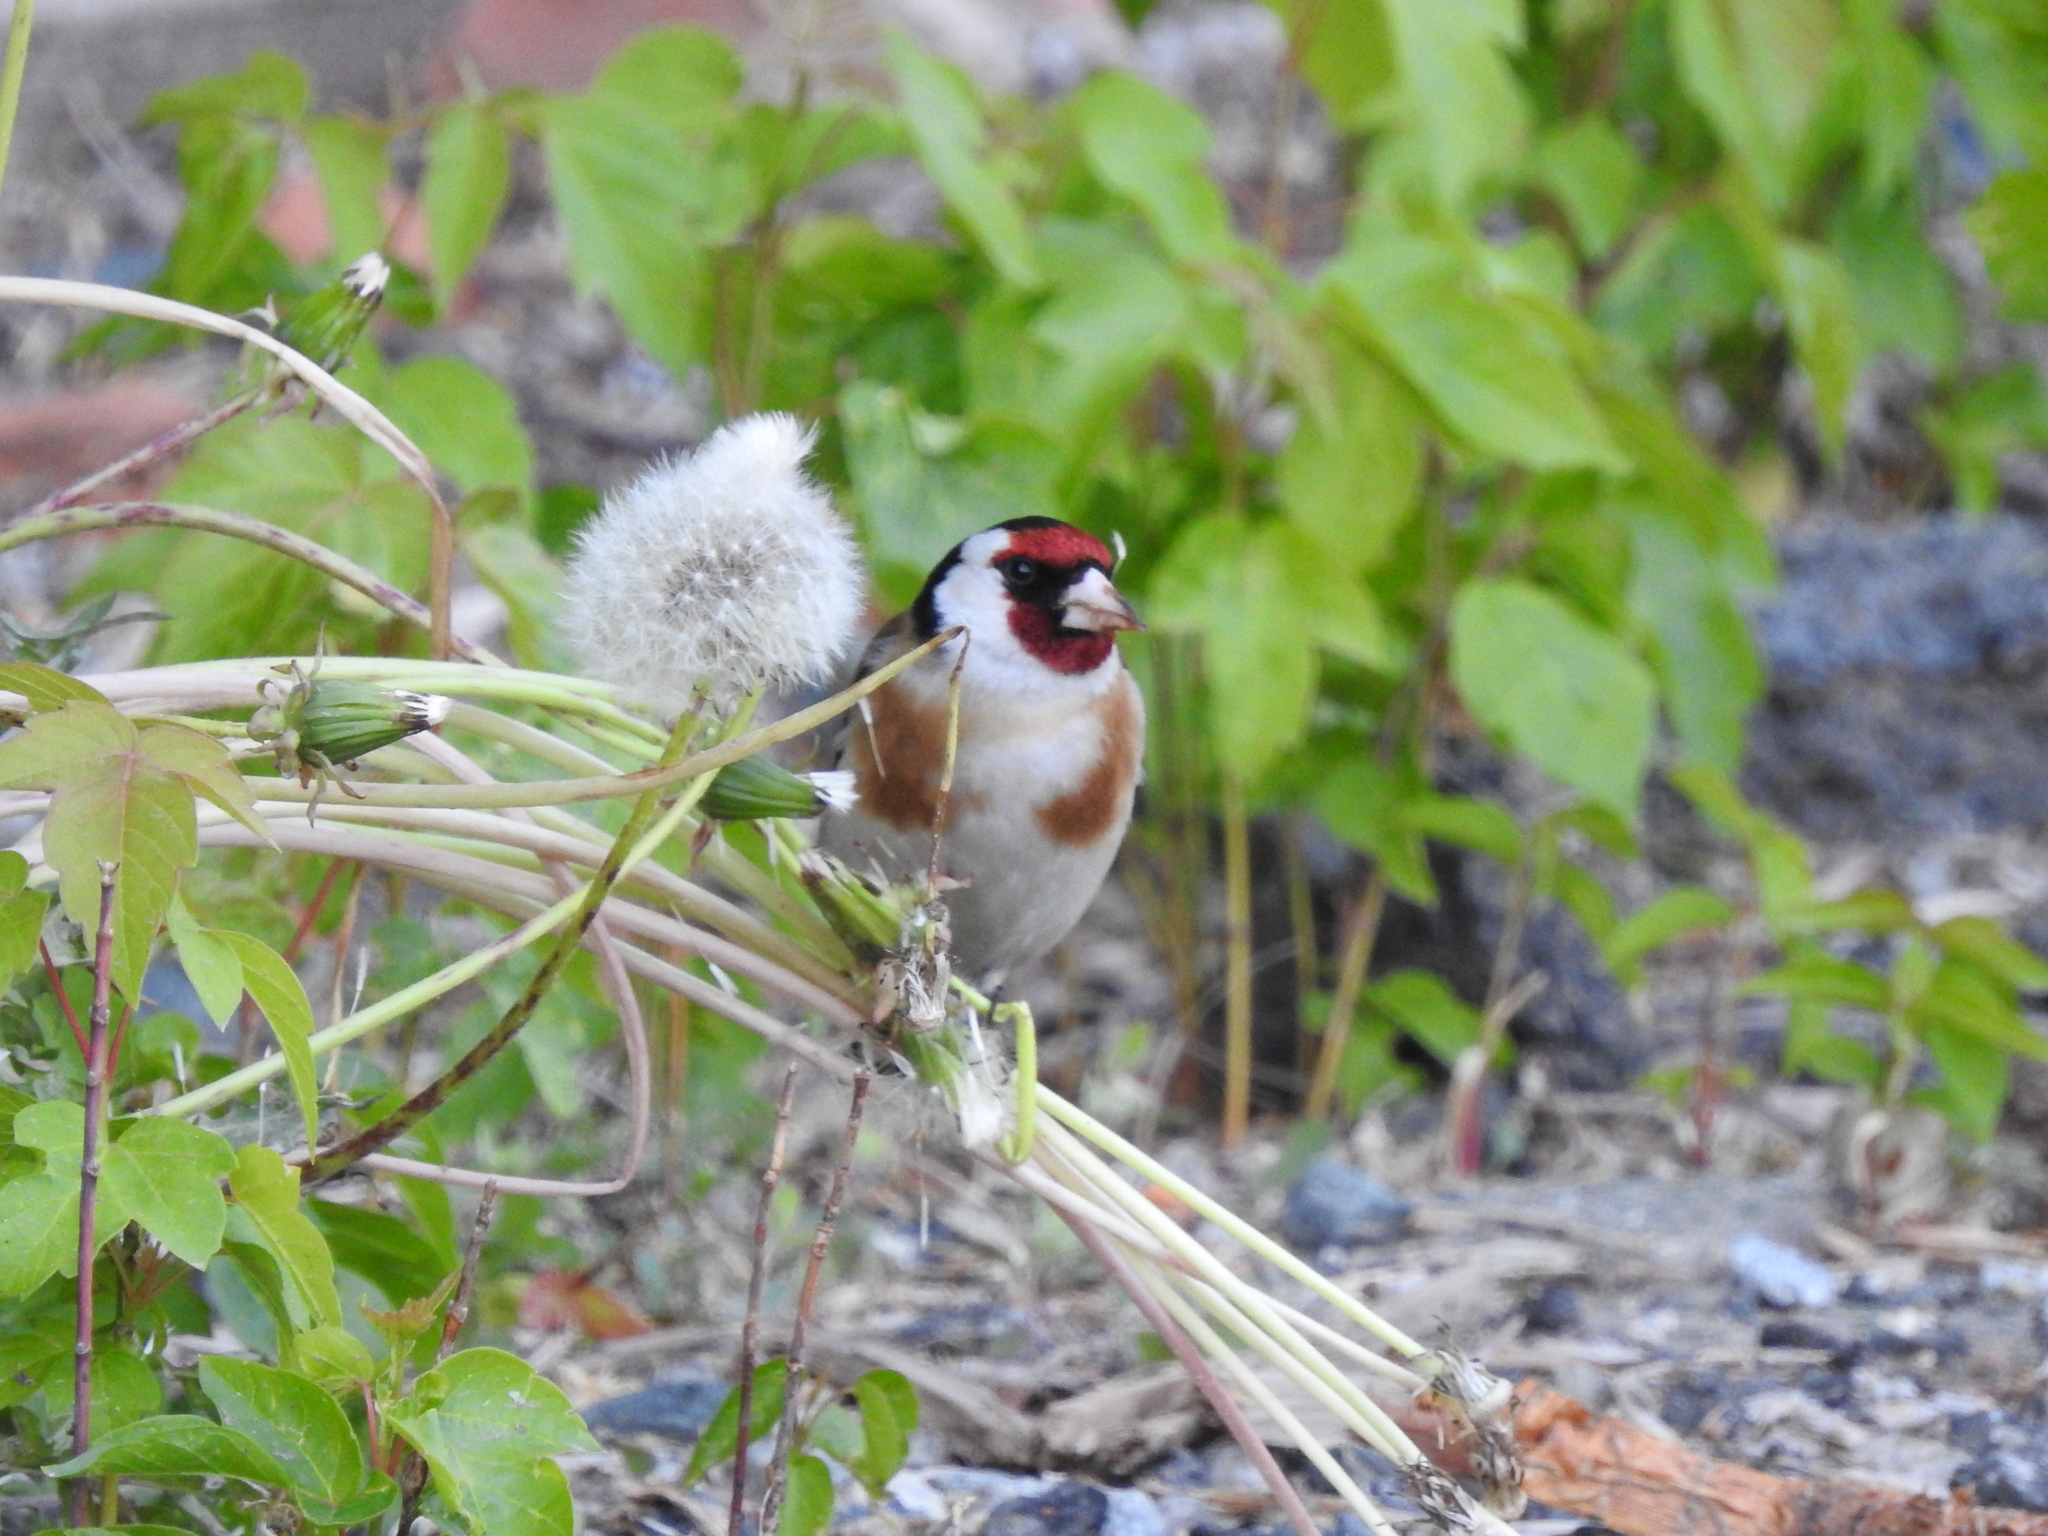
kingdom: Animalia
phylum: Chordata
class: Aves
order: Passeriformes
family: Fringillidae
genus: Carduelis
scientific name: Carduelis carduelis
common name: European goldfinch
